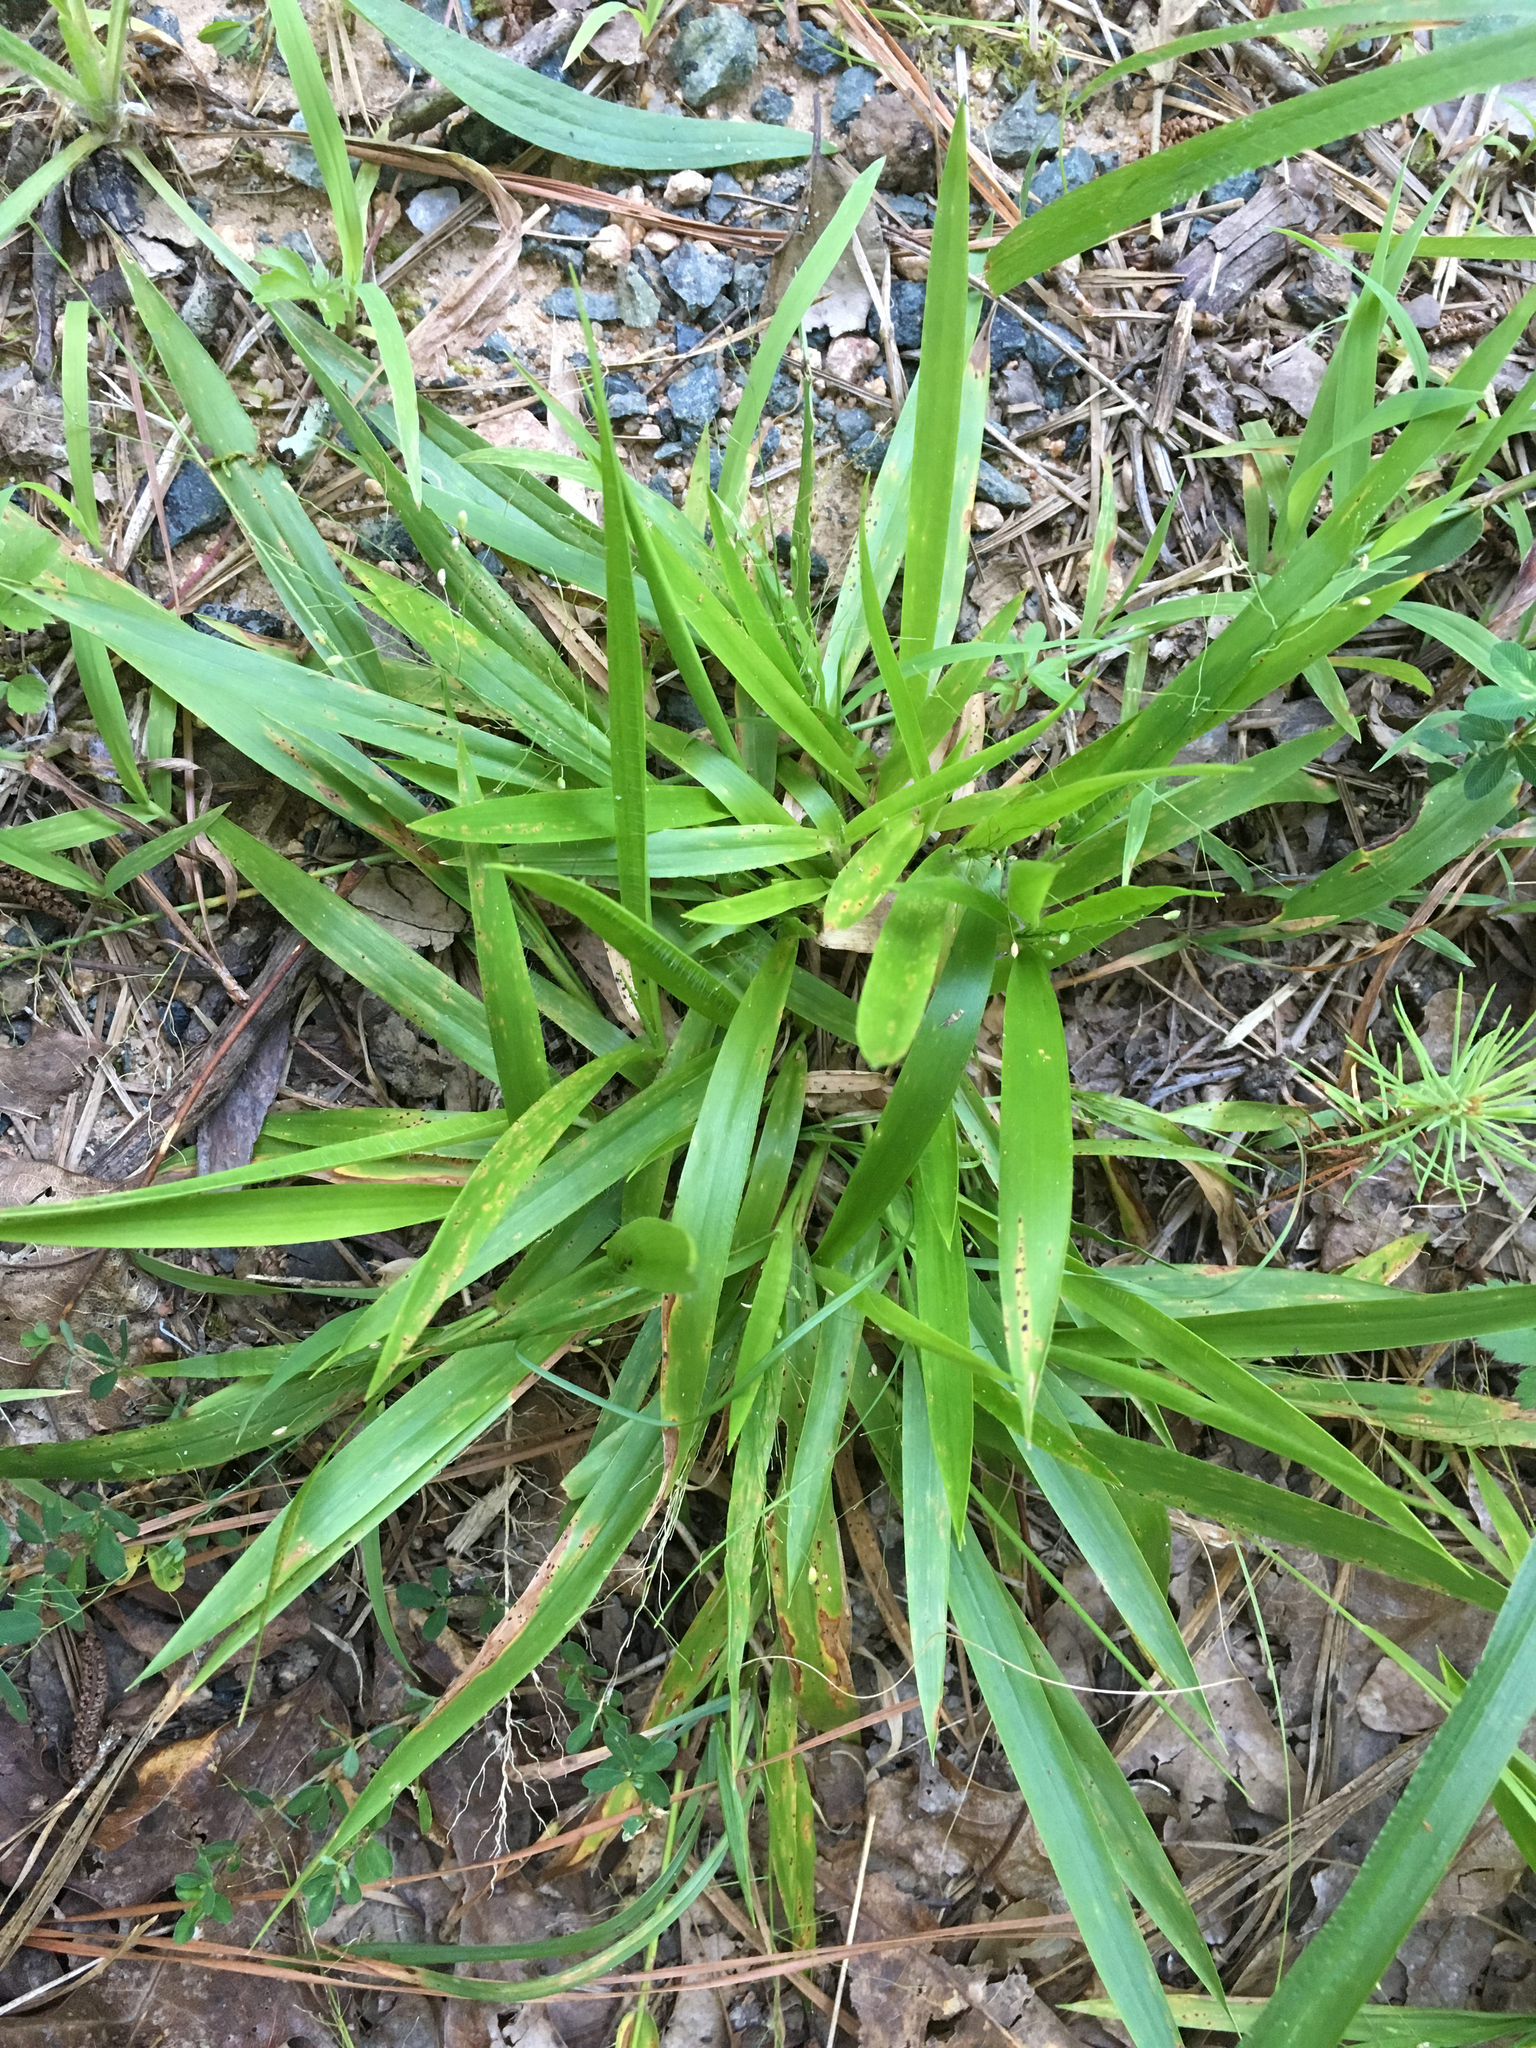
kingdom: Plantae
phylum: Tracheophyta
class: Liliopsida
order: Poales
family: Poaceae
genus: Dichanthelium
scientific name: Dichanthelium laxiflorum
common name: Soft-tuft panic grass
